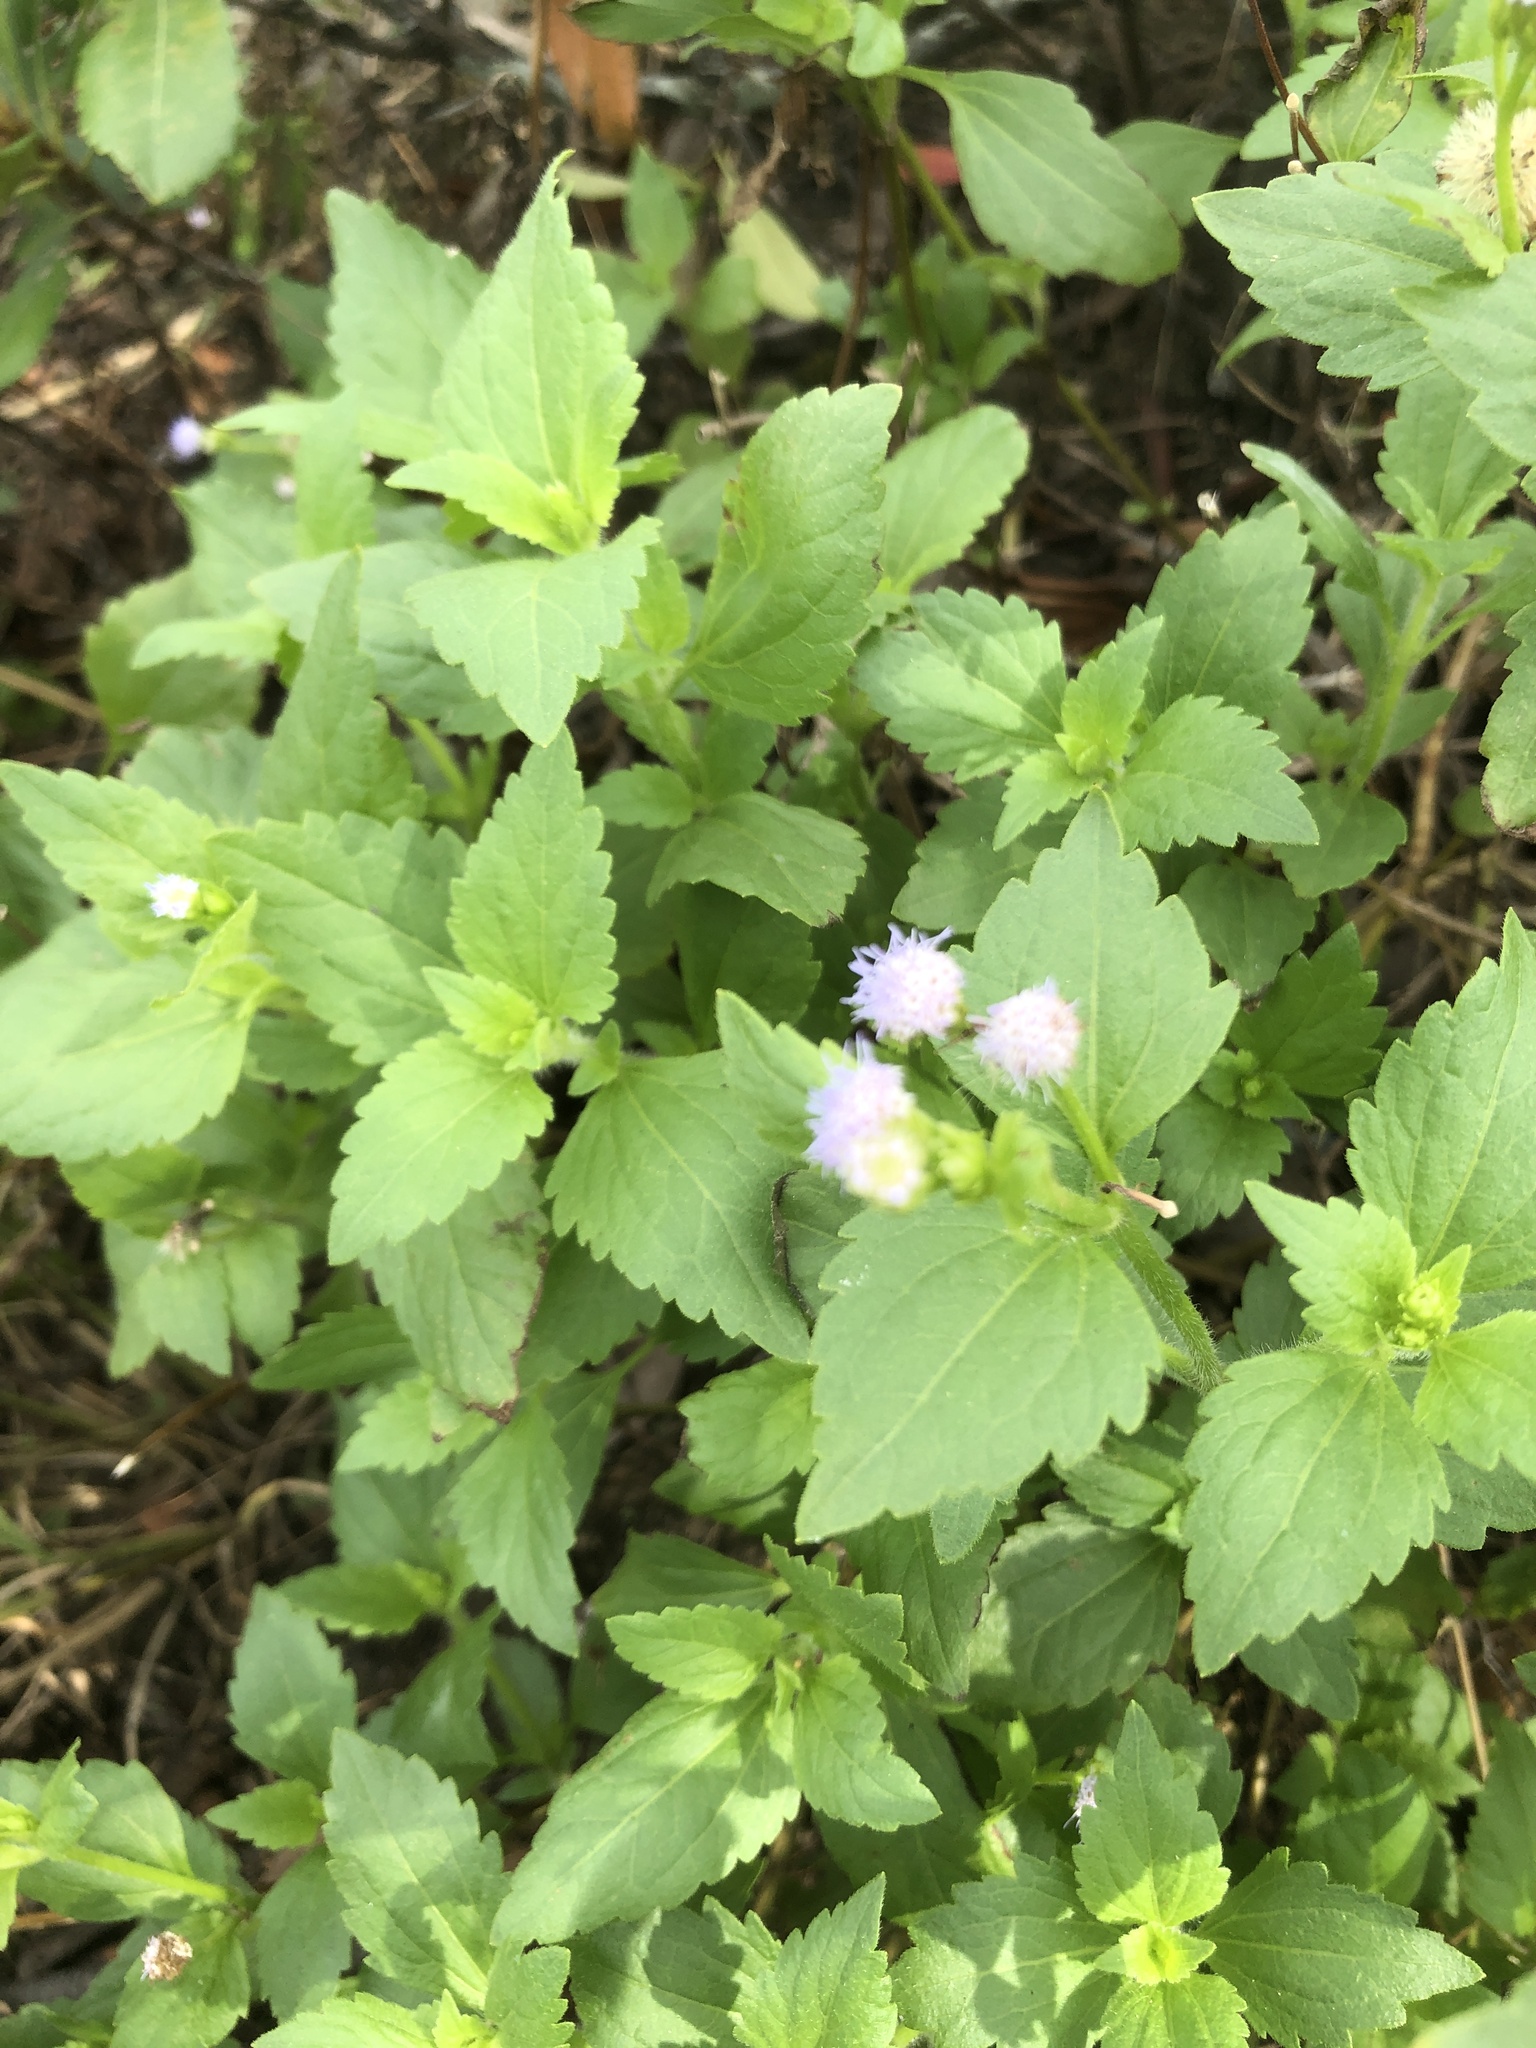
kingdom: Plantae
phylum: Tracheophyta
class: Magnoliopsida
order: Asterales
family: Asteraceae
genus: Praxelis
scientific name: Praxelis clematidea
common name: Praxelis
